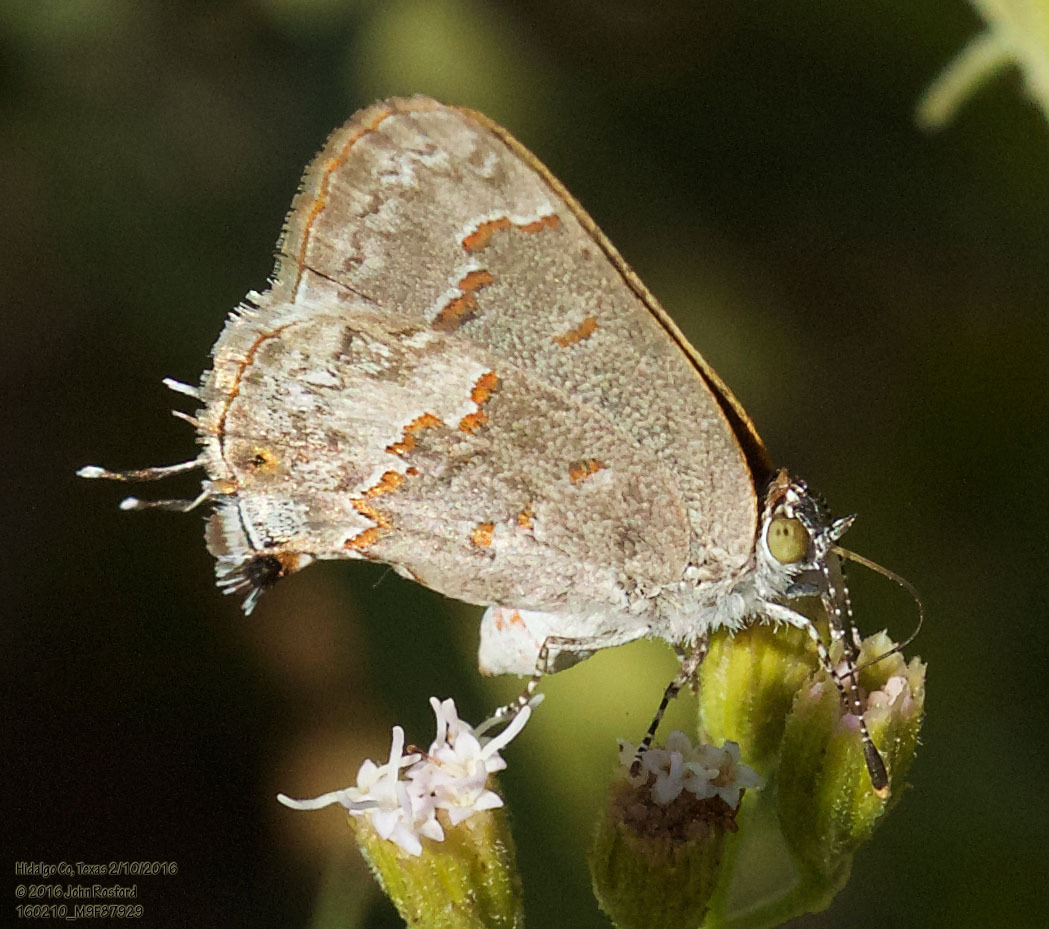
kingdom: Animalia
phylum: Arthropoda
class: Insecta
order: Lepidoptera
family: Lycaenidae
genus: Ministrymon
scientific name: Ministrymon clytie
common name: Clytie ministreak
